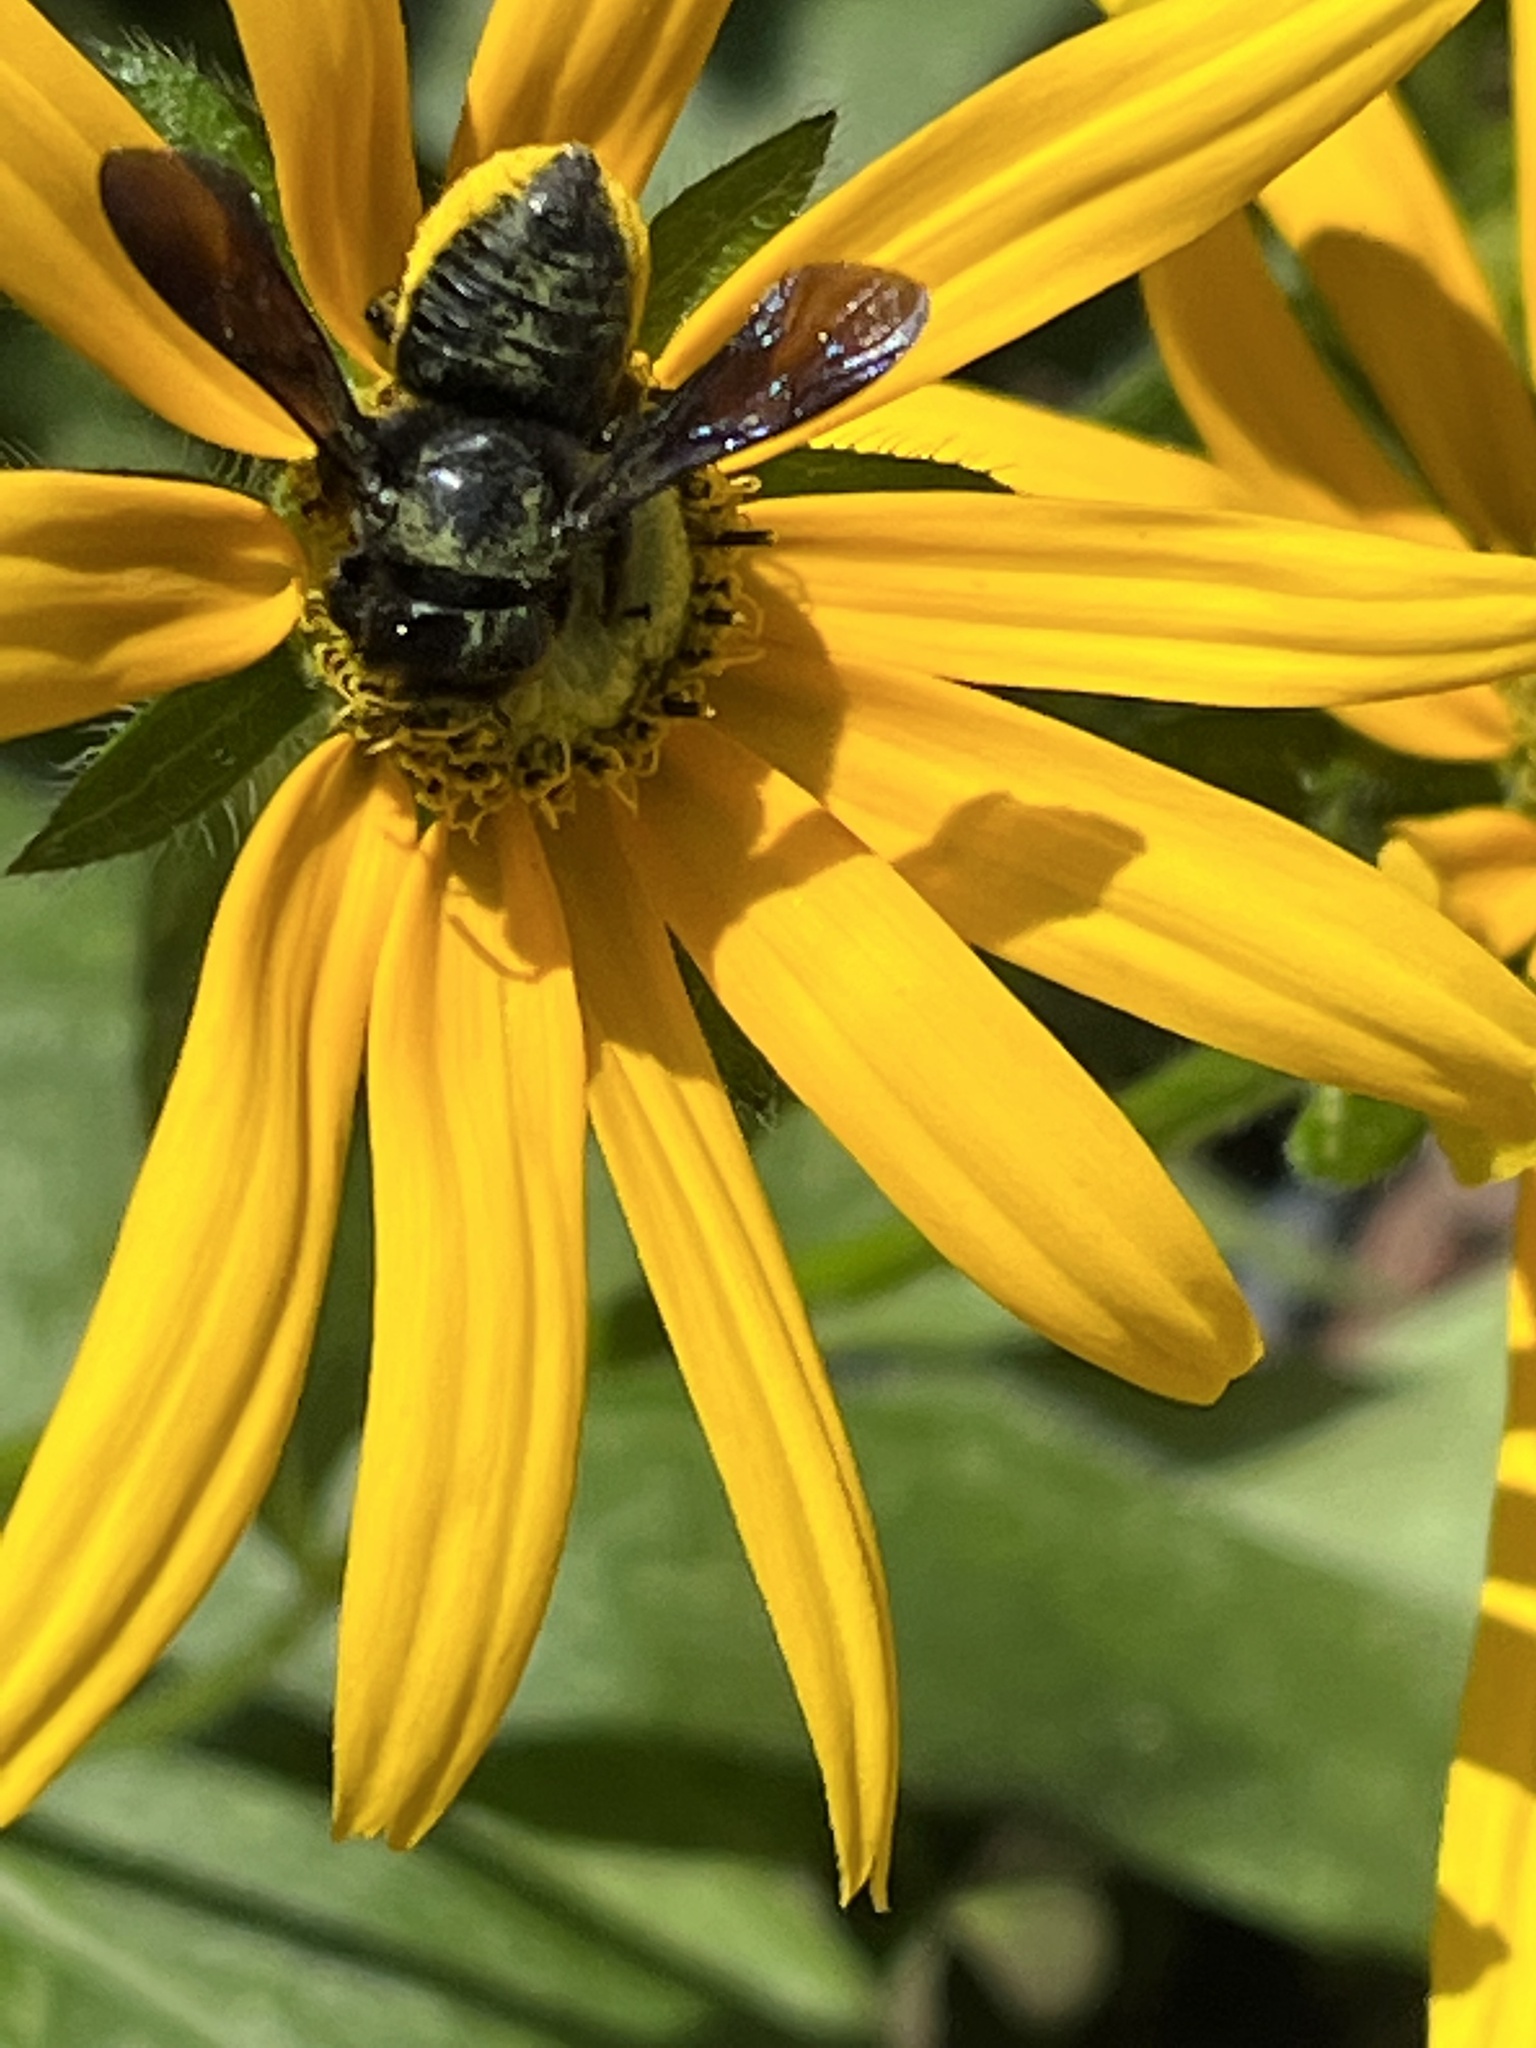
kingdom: Animalia
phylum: Arthropoda
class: Insecta
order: Hymenoptera
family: Megachilidae
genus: Megachile
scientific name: Megachile xylocopoides
